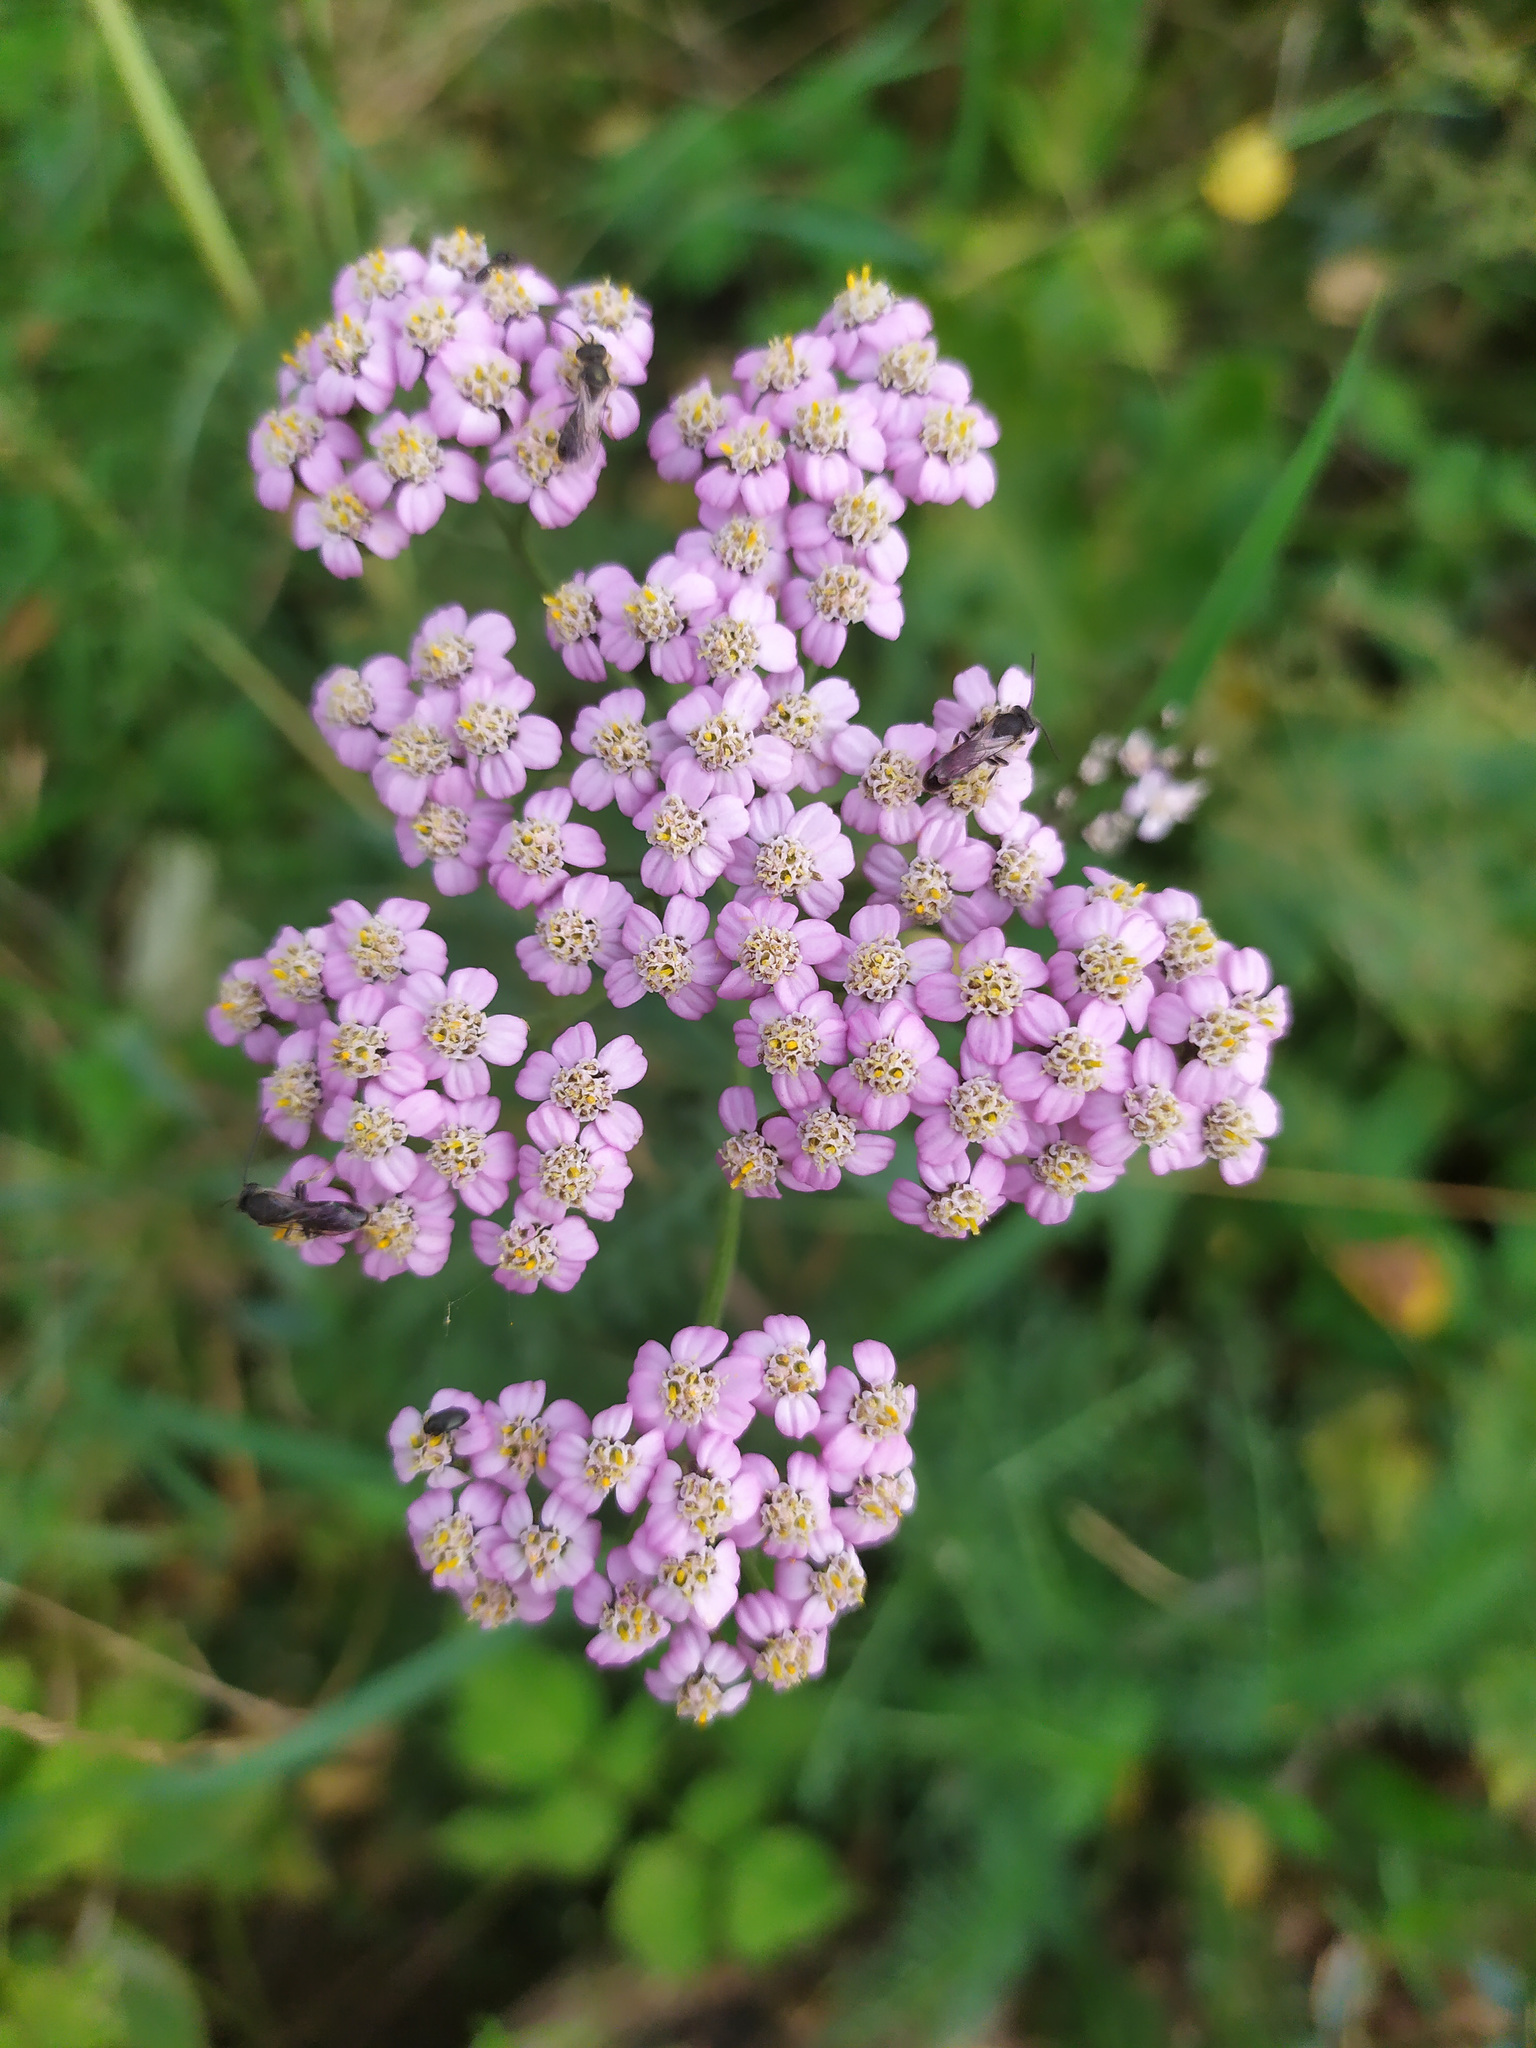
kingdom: Plantae
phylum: Tracheophyta
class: Magnoliopsida
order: Asterales
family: Asteraceae
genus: Achillea
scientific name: Achillea asiatica
